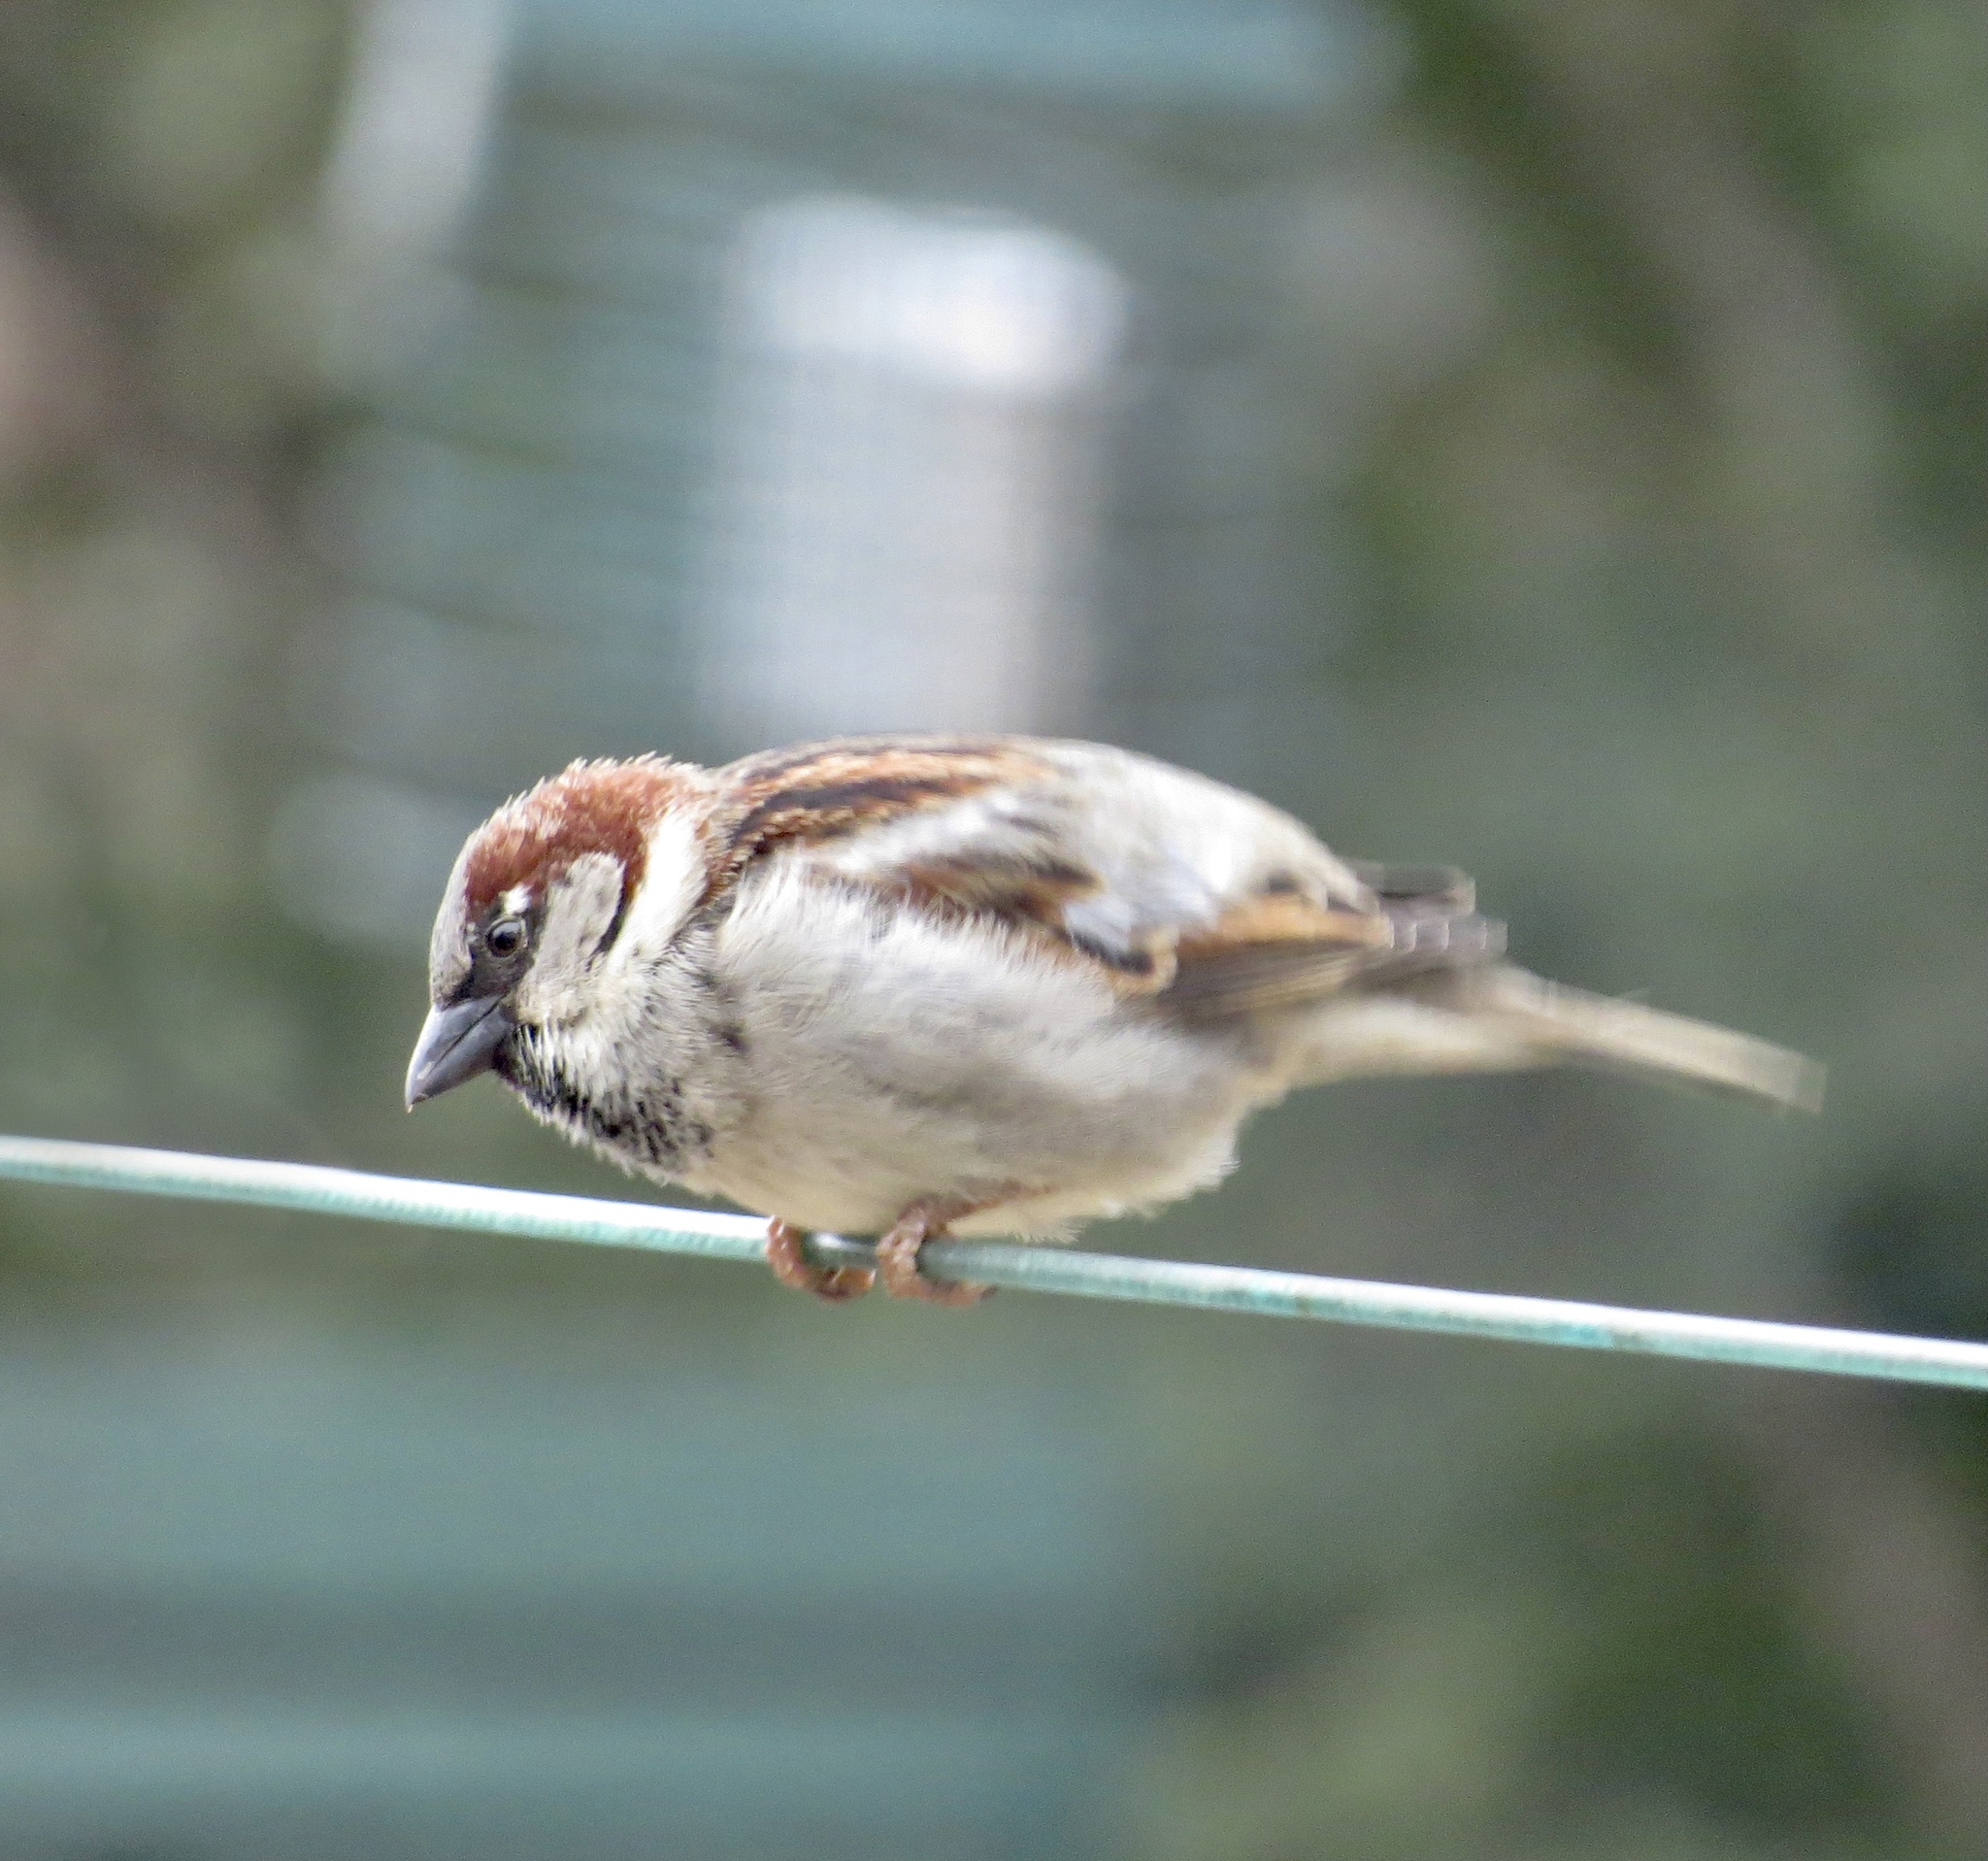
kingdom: Animalia
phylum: Chordata
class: Aves
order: Passeriformes
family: Passeridae
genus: Passer
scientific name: Passer domesticus
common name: House sparrow
